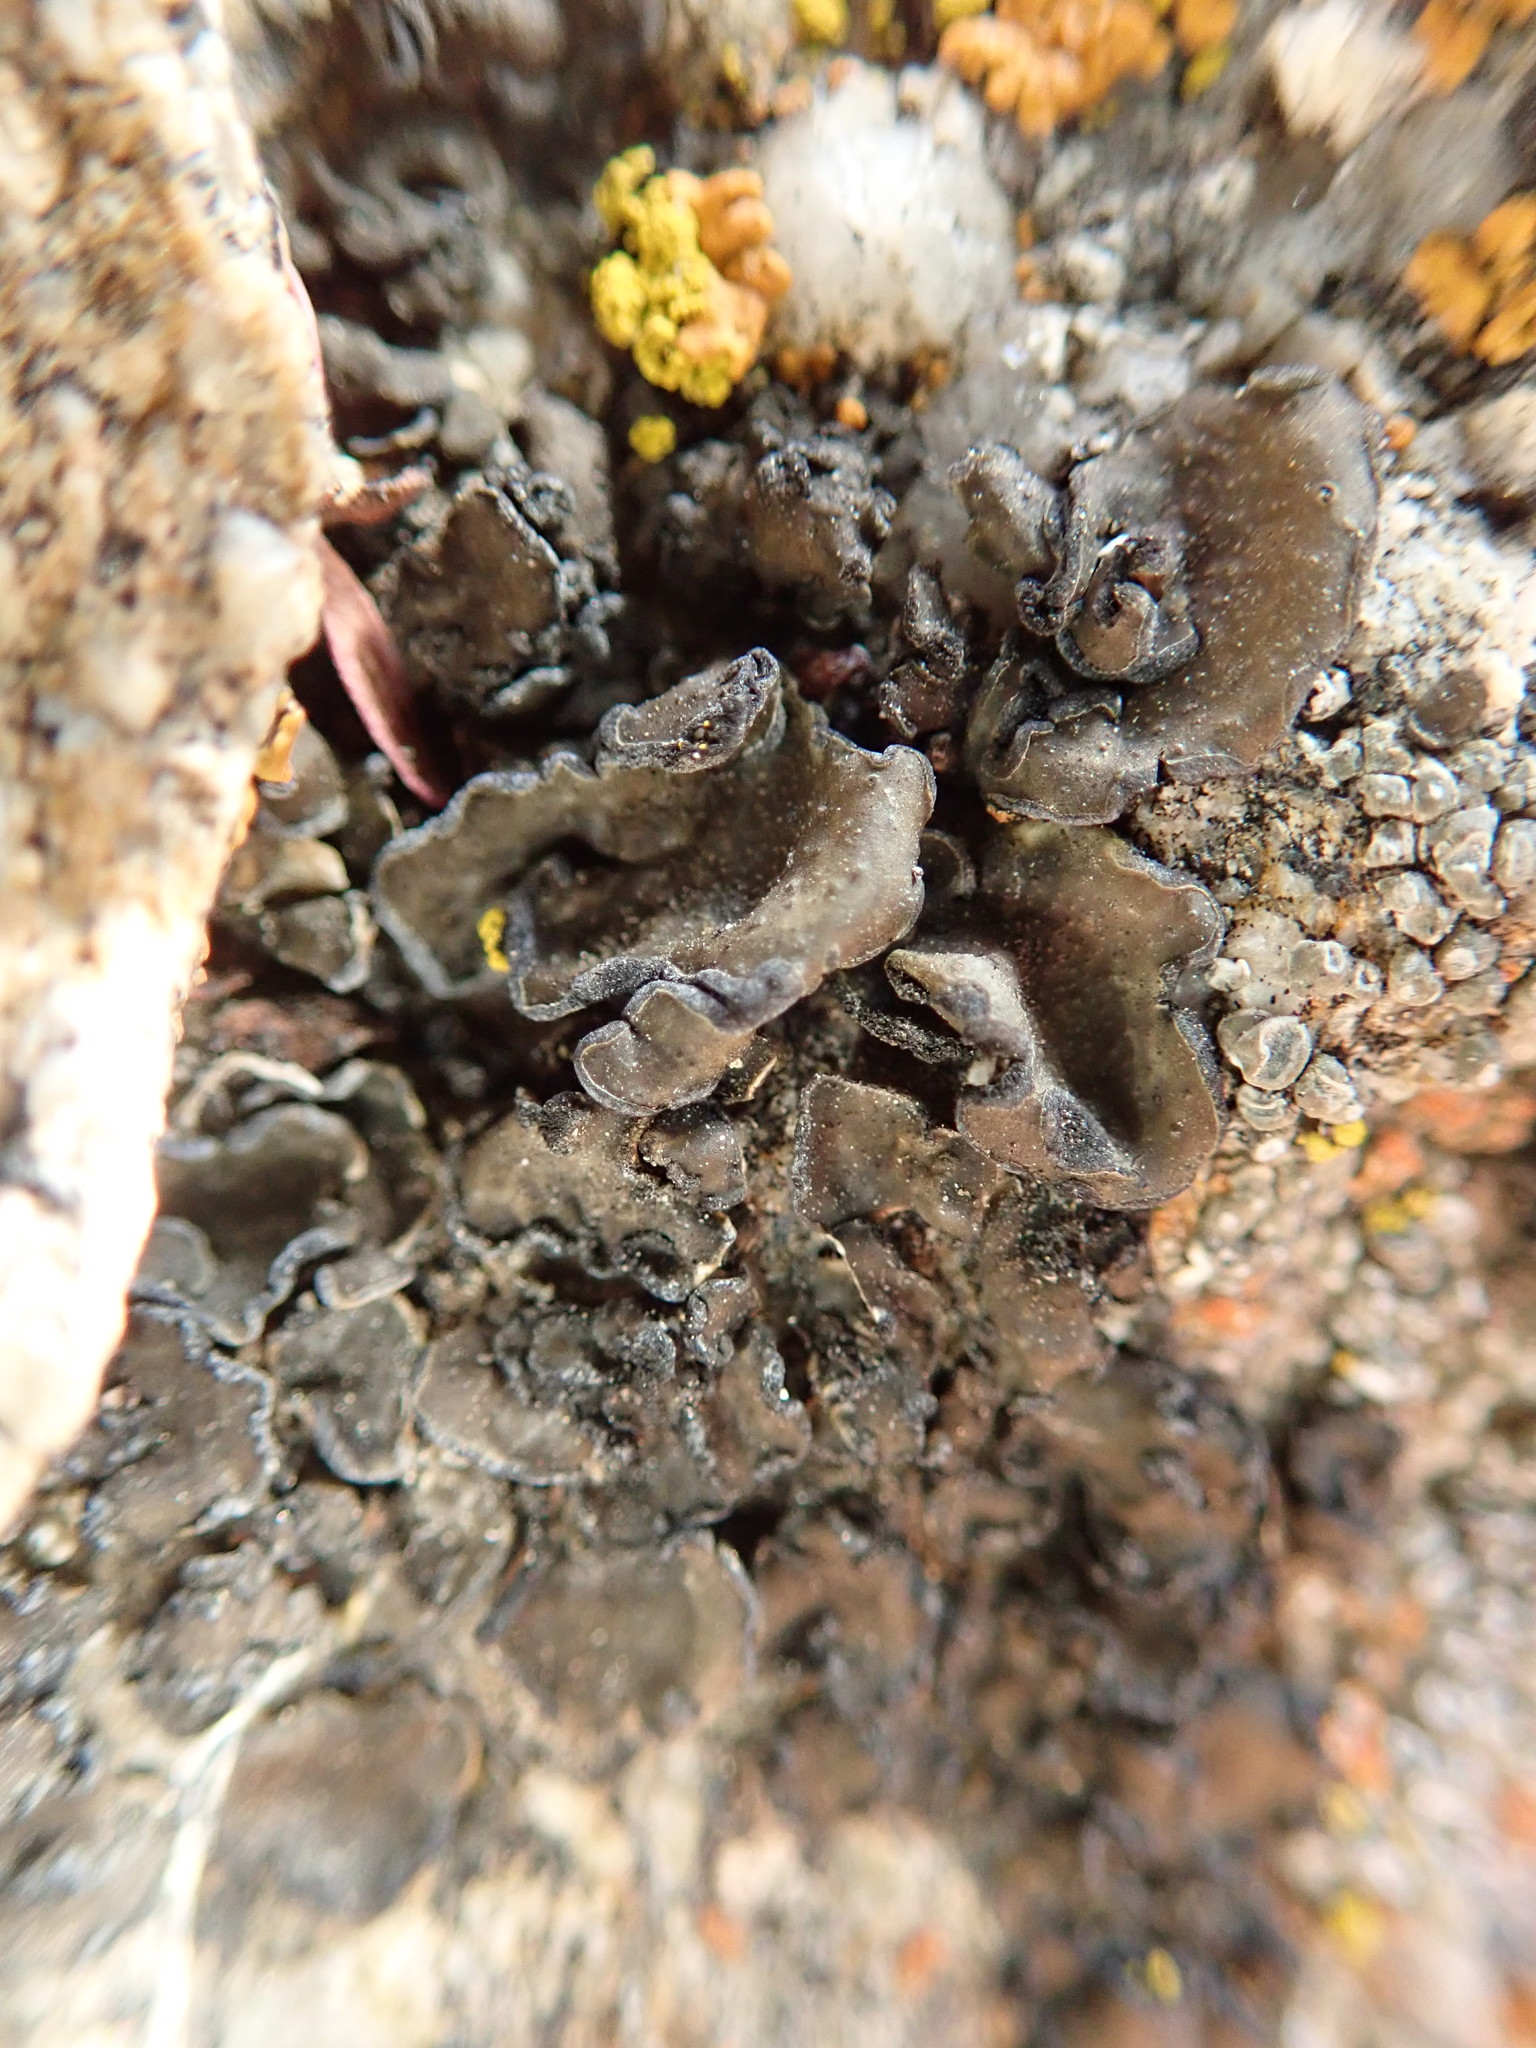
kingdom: Fungi
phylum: Ascomycota
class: Lichinomycetes
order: Lichinales
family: Peltulaceae
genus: Peltula
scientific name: Peltula euploca
